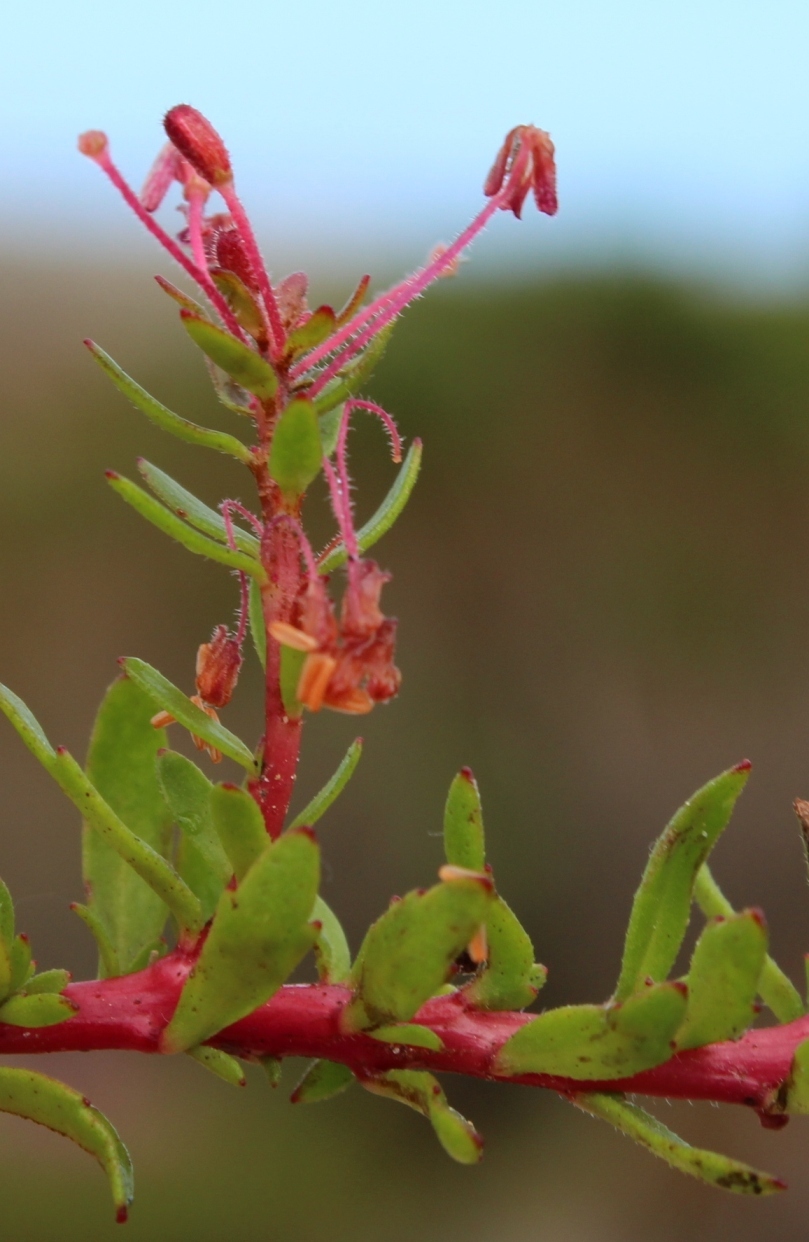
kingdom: Plantae
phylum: Tracheophyta
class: Magnoliopsida
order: Saxifragales
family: Haloragaceae
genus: Laurembergia
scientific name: Laurembergia repens
